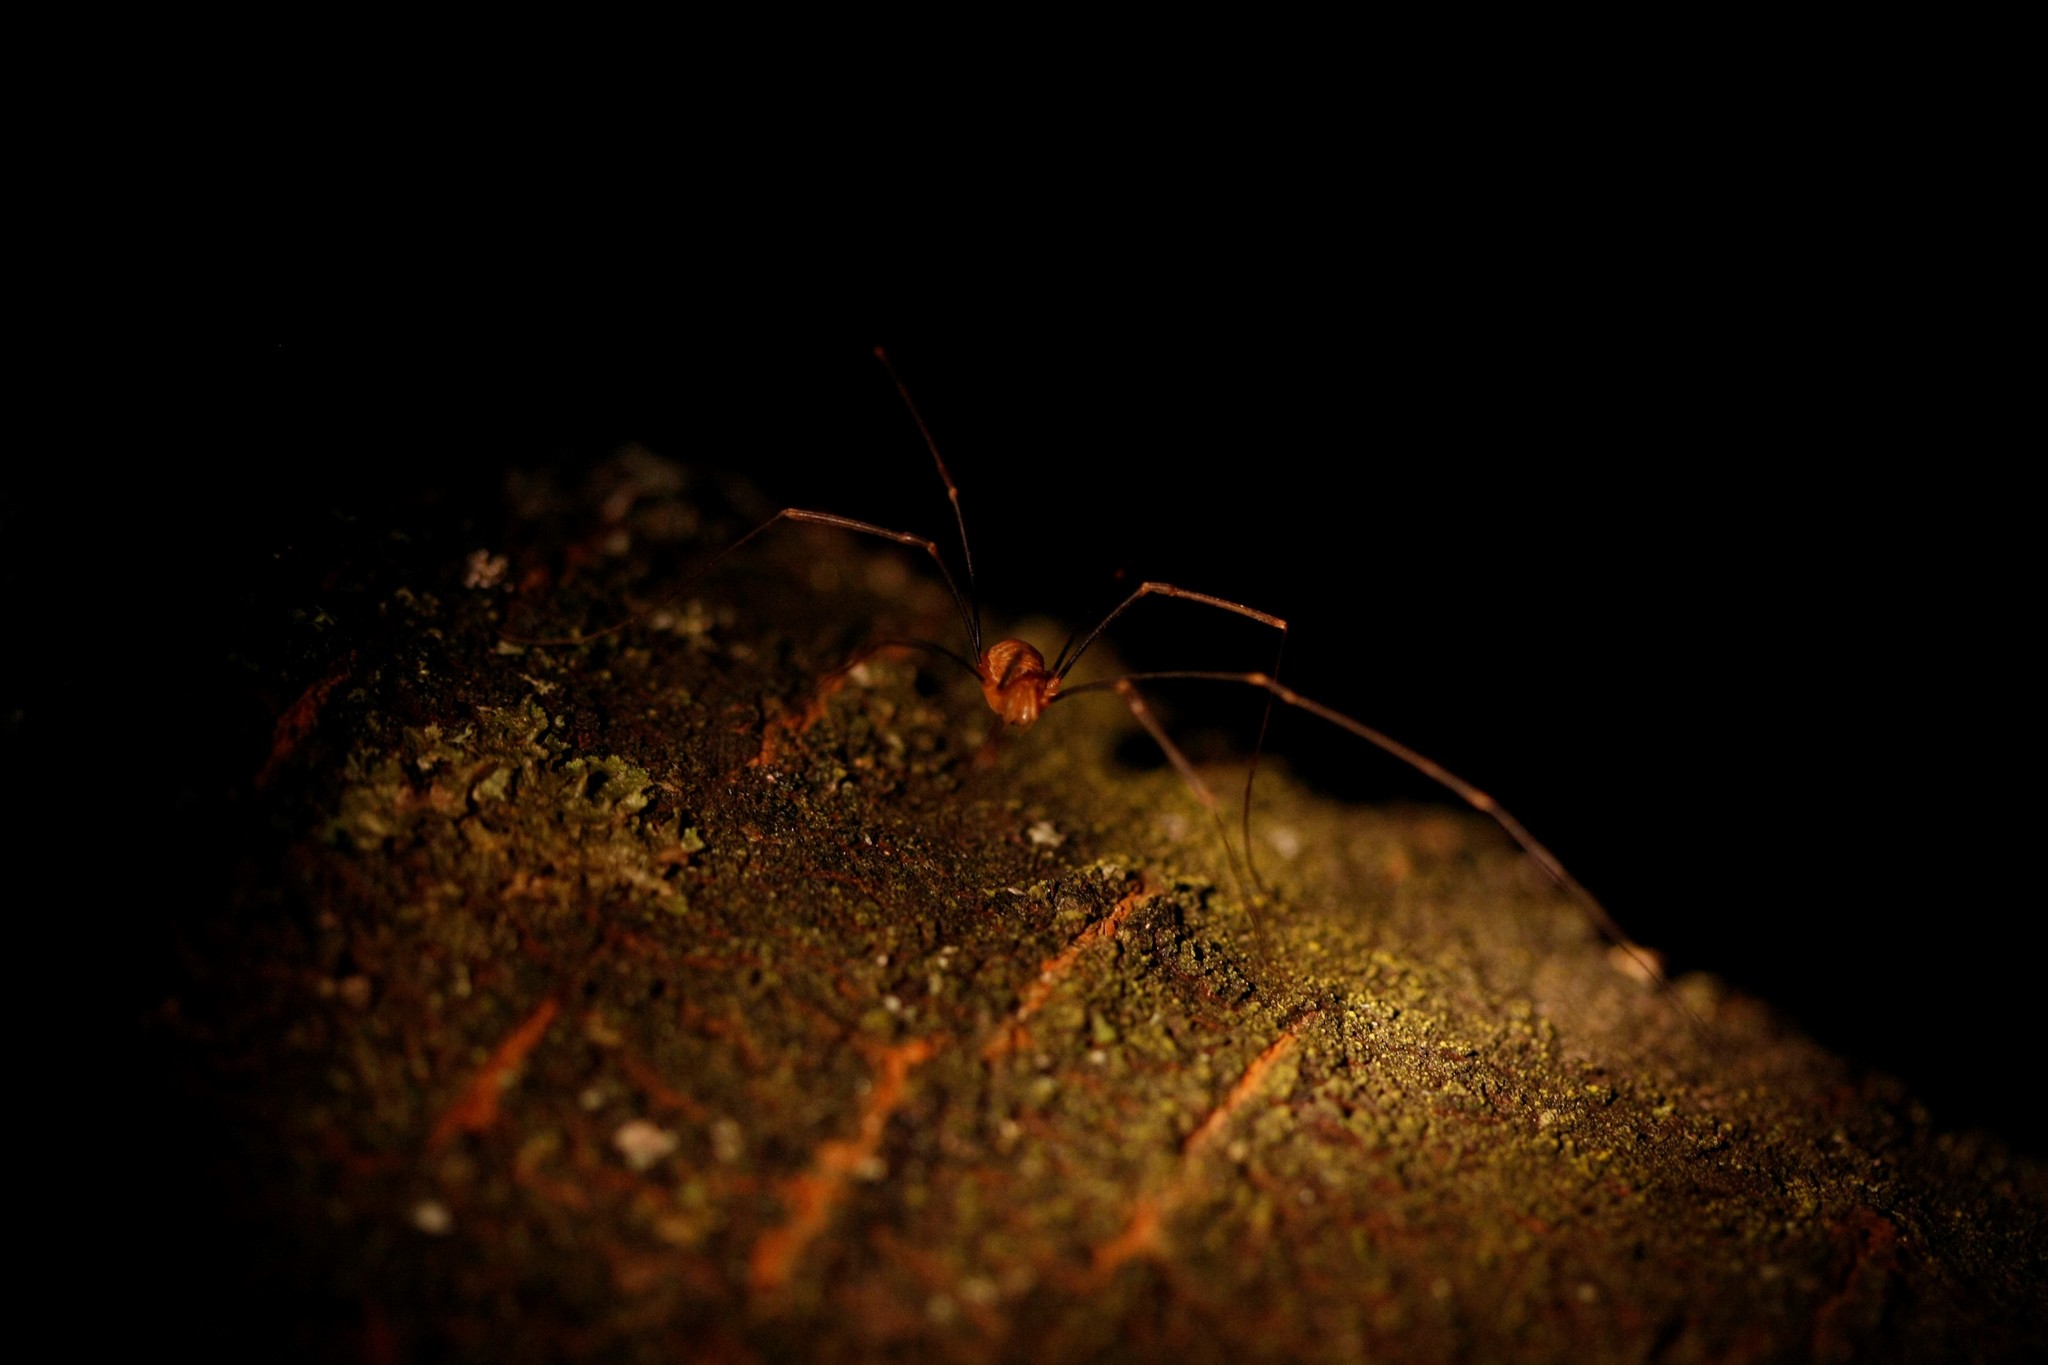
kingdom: Animalia
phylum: Arthropoda
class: Arachnida
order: Opiliones
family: Phalangiidae
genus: Opilio
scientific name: Opilio canestrinii
